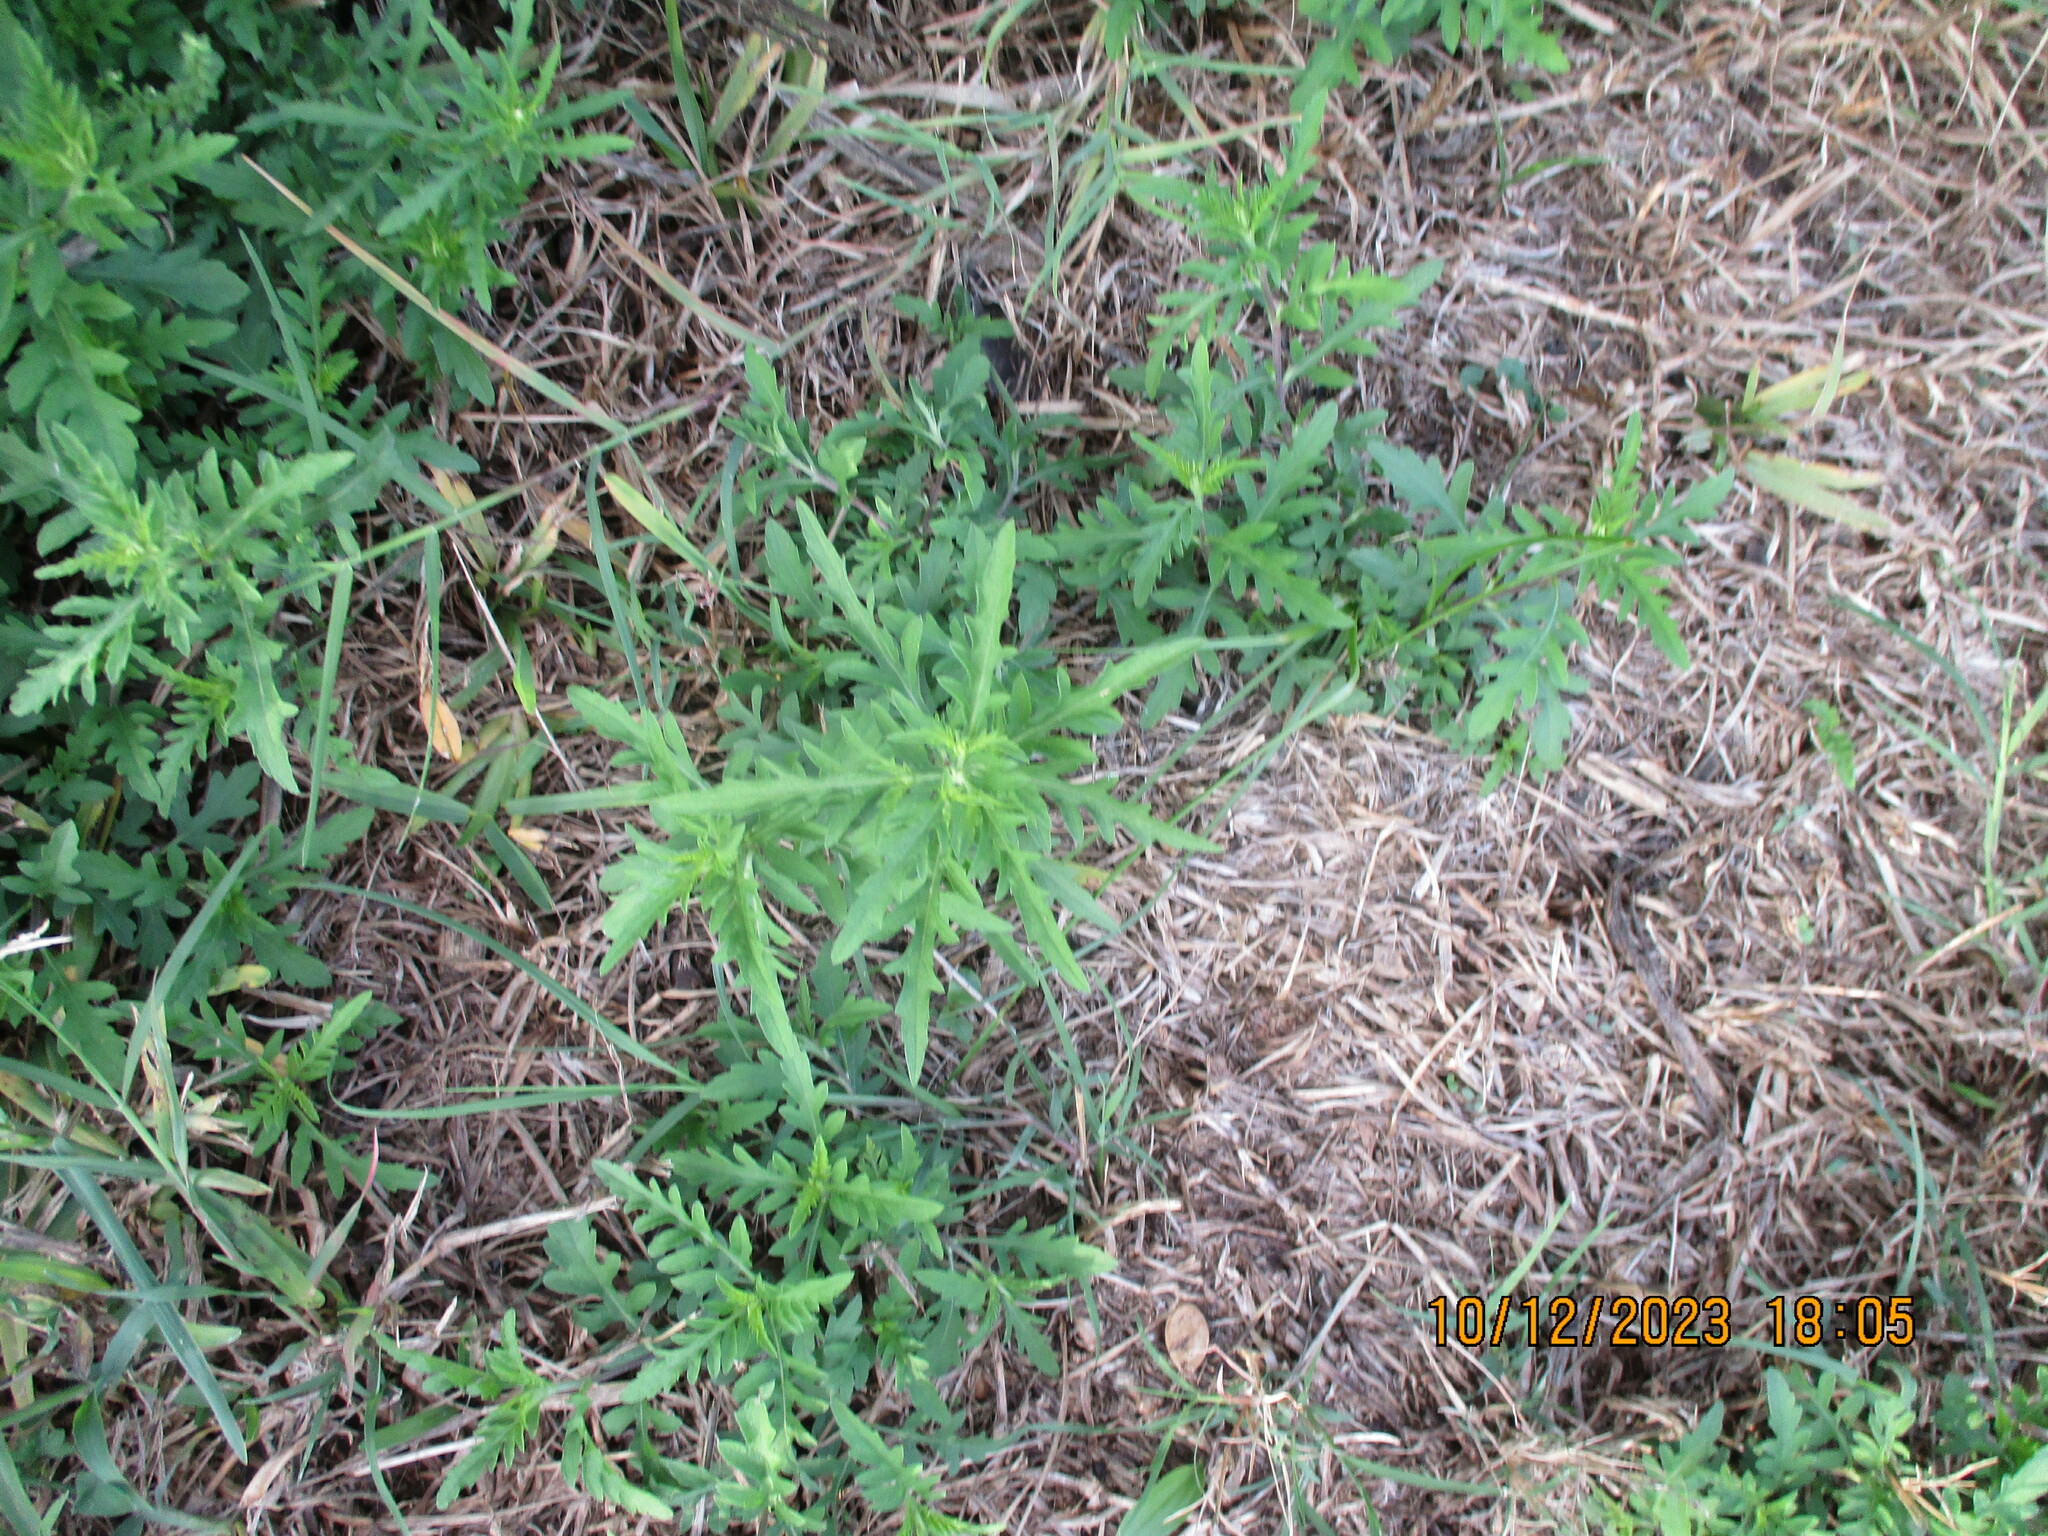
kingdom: Plantae
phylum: Tracheophyta
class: Magnoliopsida
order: Asterales
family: Asteraceae
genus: Ambrosia
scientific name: Ambrosia psilostachya
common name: Perennial ragweed
